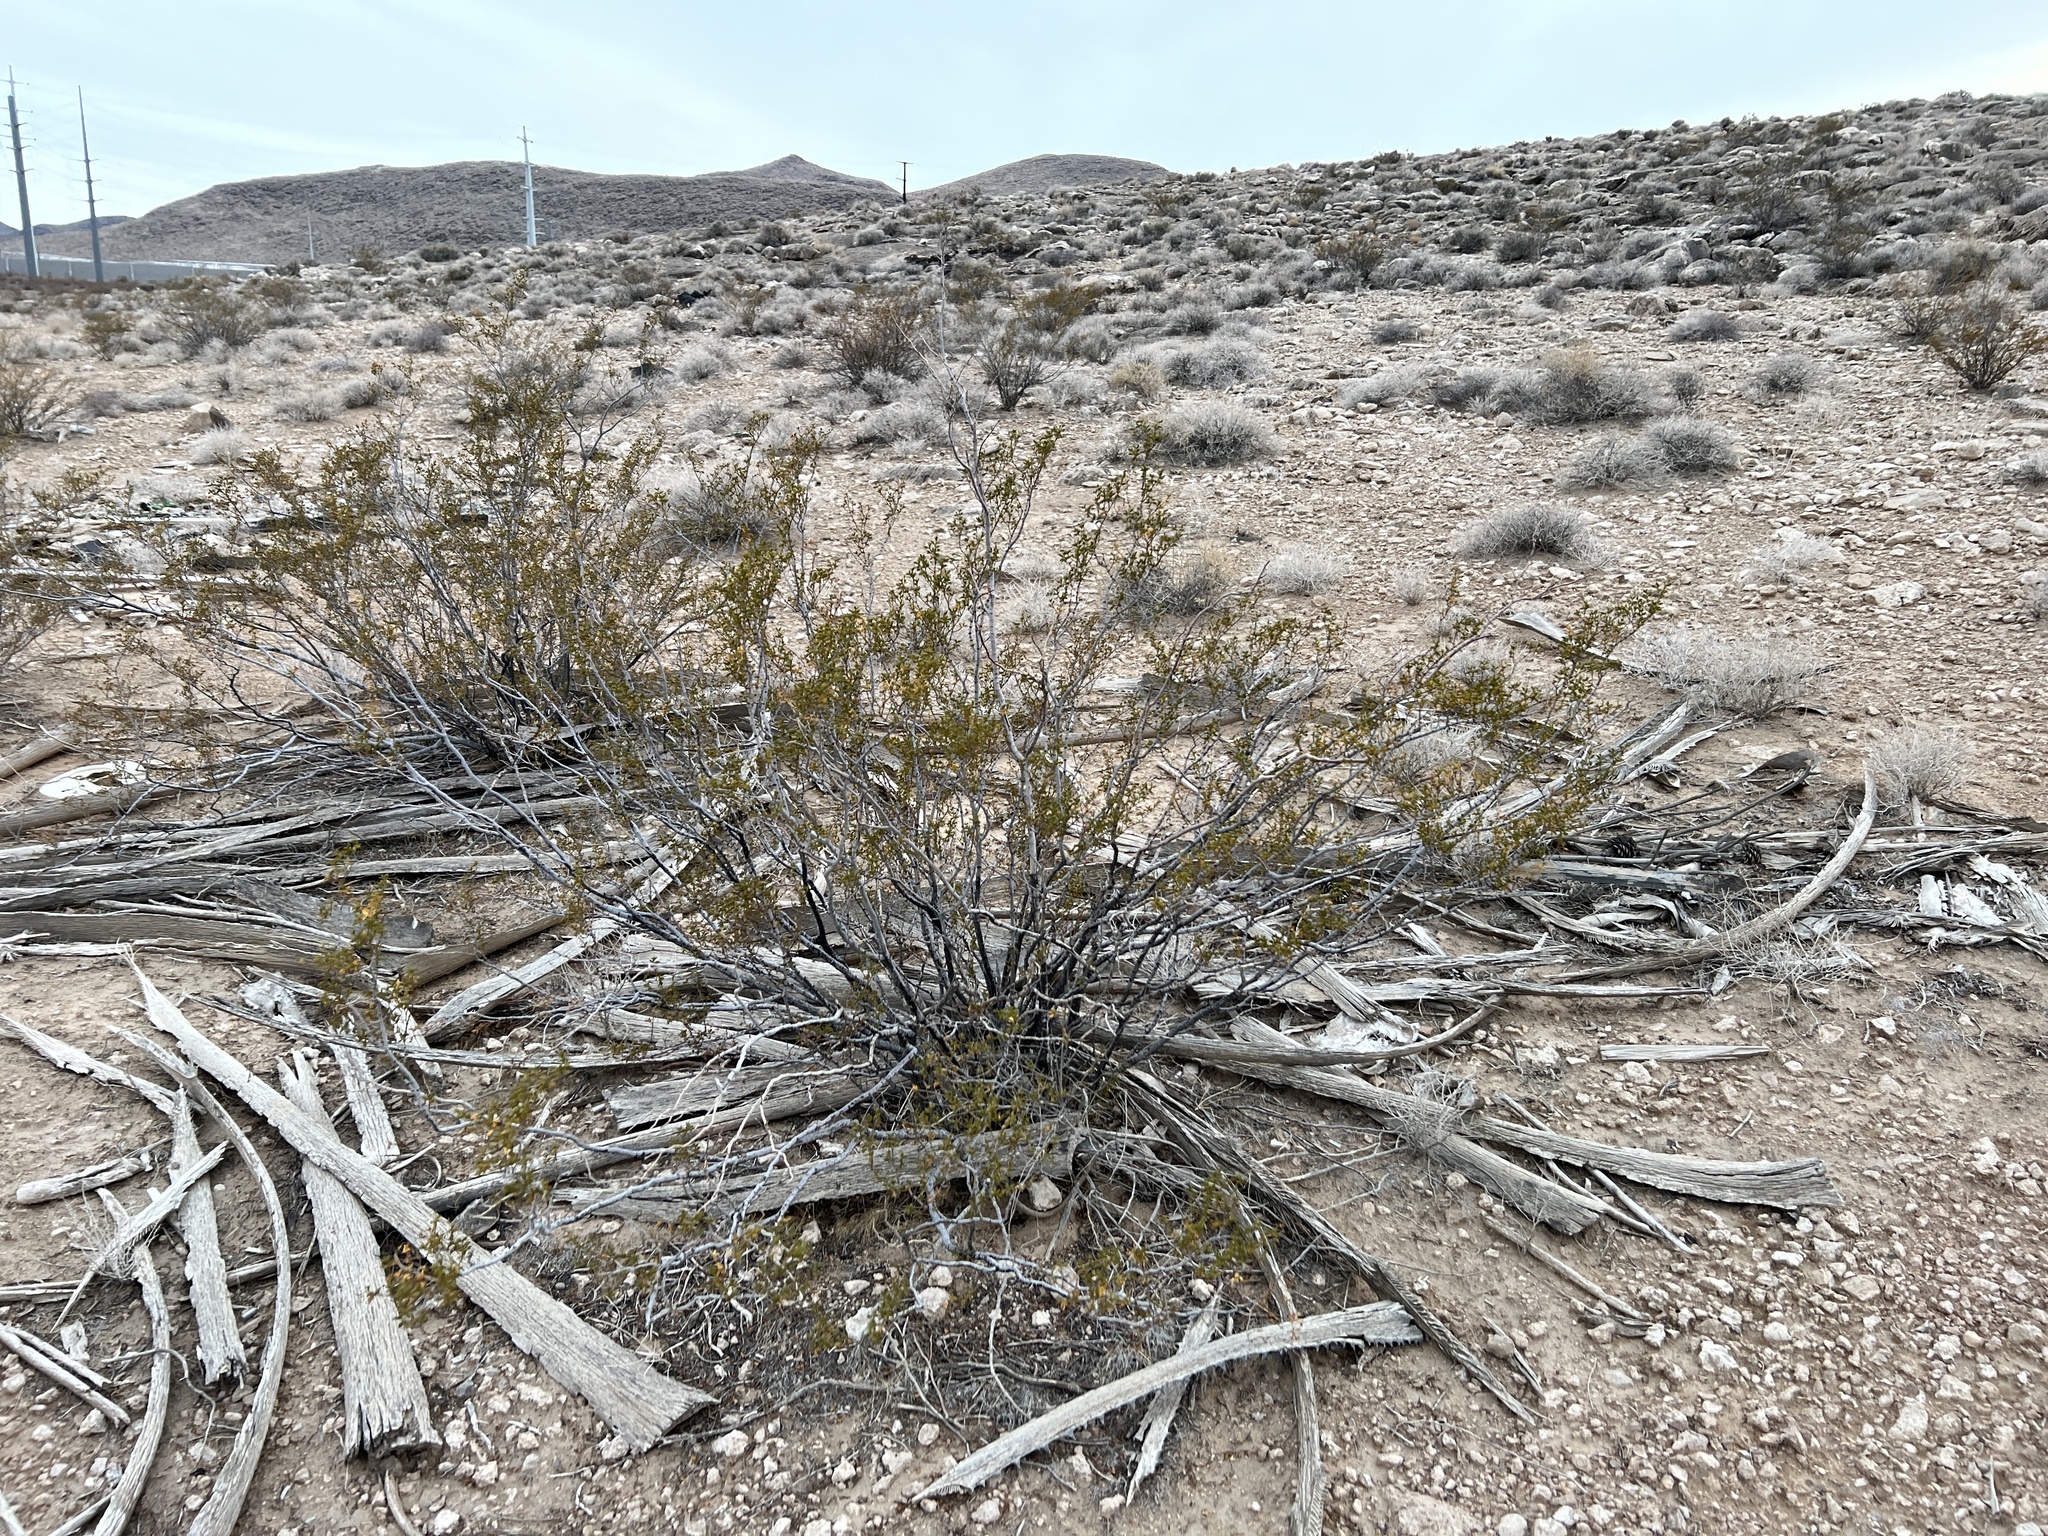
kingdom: Plantae
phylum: Tracheophyta
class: Magnoliopsida
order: Zygophyllales
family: Zygophyllaceae
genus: Larrea
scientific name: Larrea tridentata
